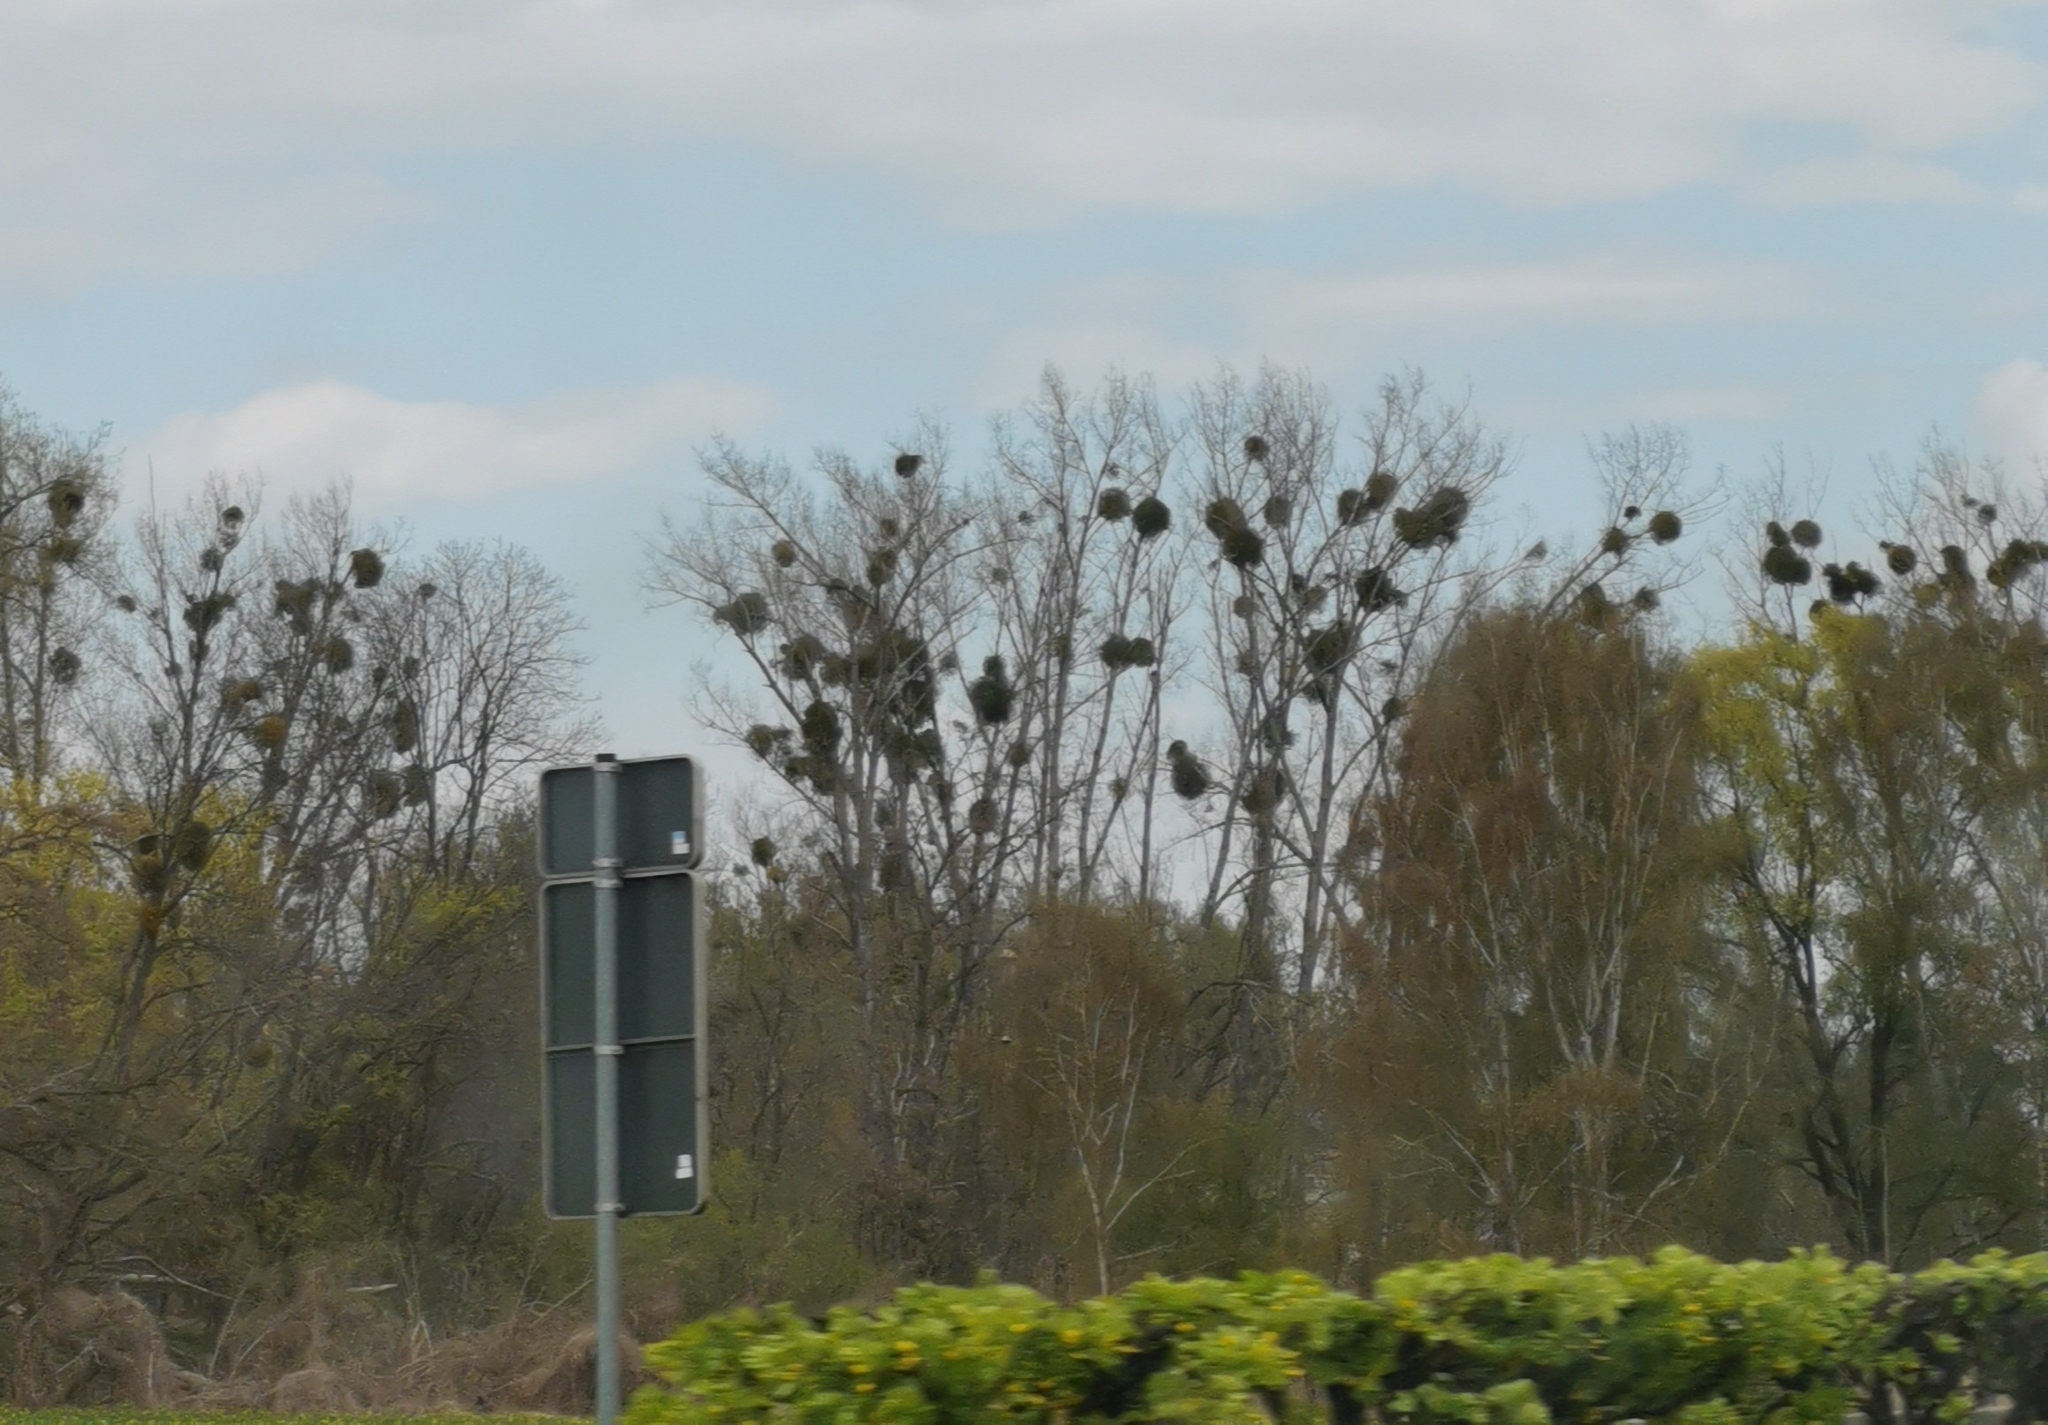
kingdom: Plantae
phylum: Tracheophyta
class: Magnoliopsida
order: Santalales
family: Viscaceae
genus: Viscum
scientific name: Viscum album
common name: Mistletoe
